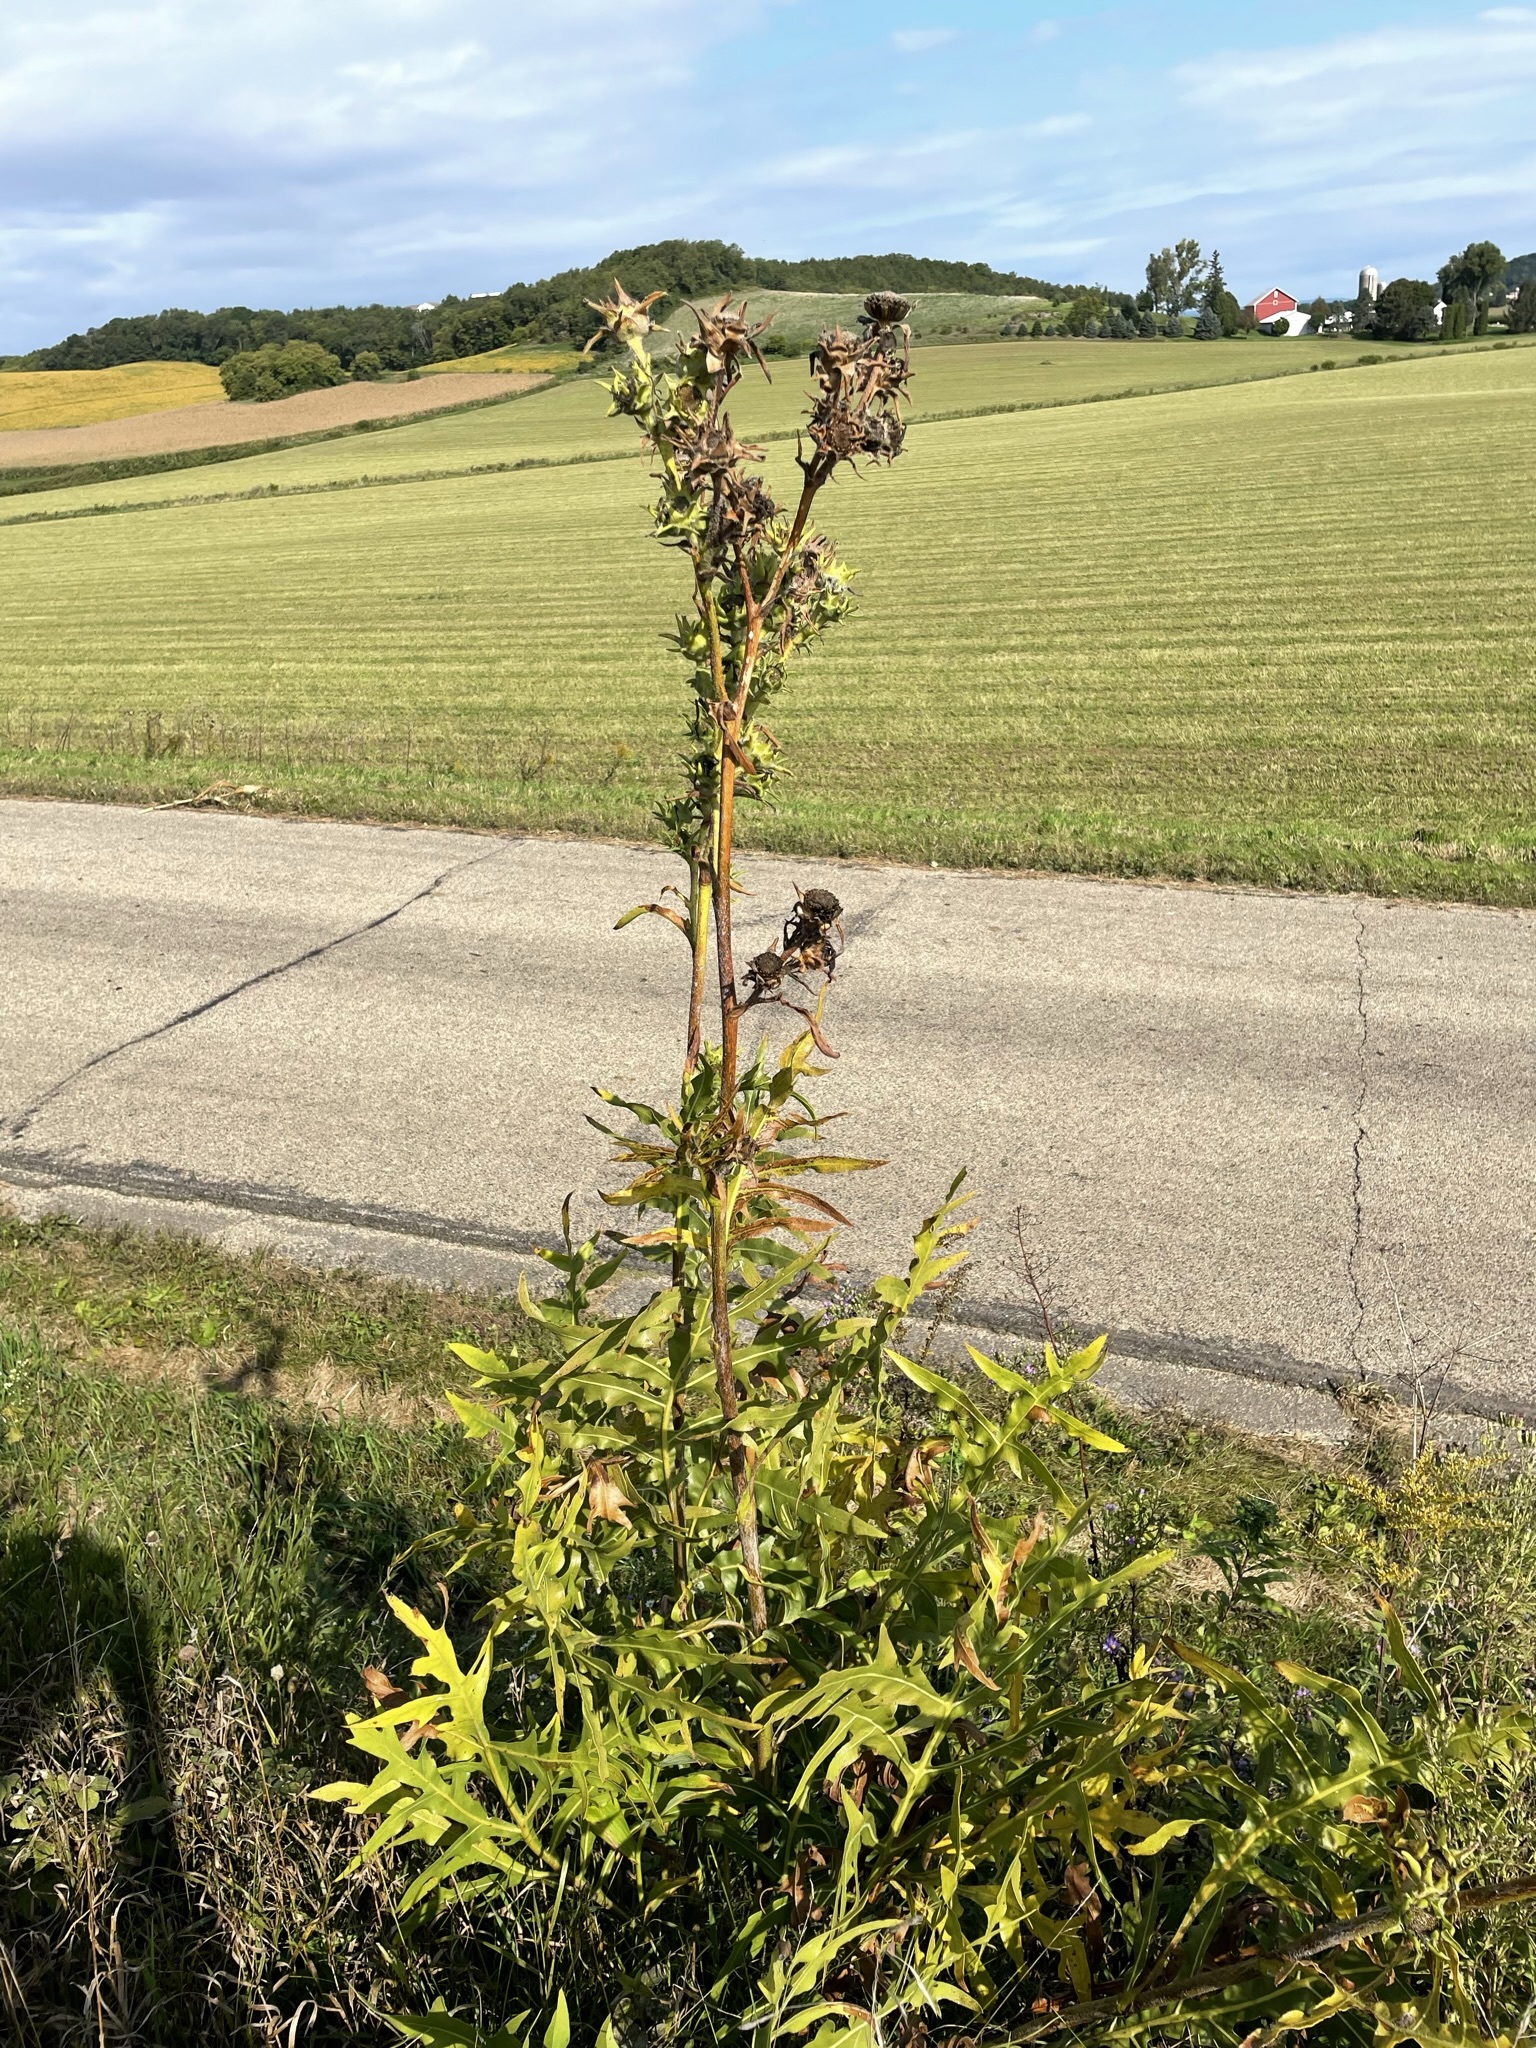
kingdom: Plantae
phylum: Tracheophyta
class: Magnoliopsida
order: Asterales
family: Asteraceae
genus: Silphium
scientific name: Silphium laciniatum
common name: Polarplant
